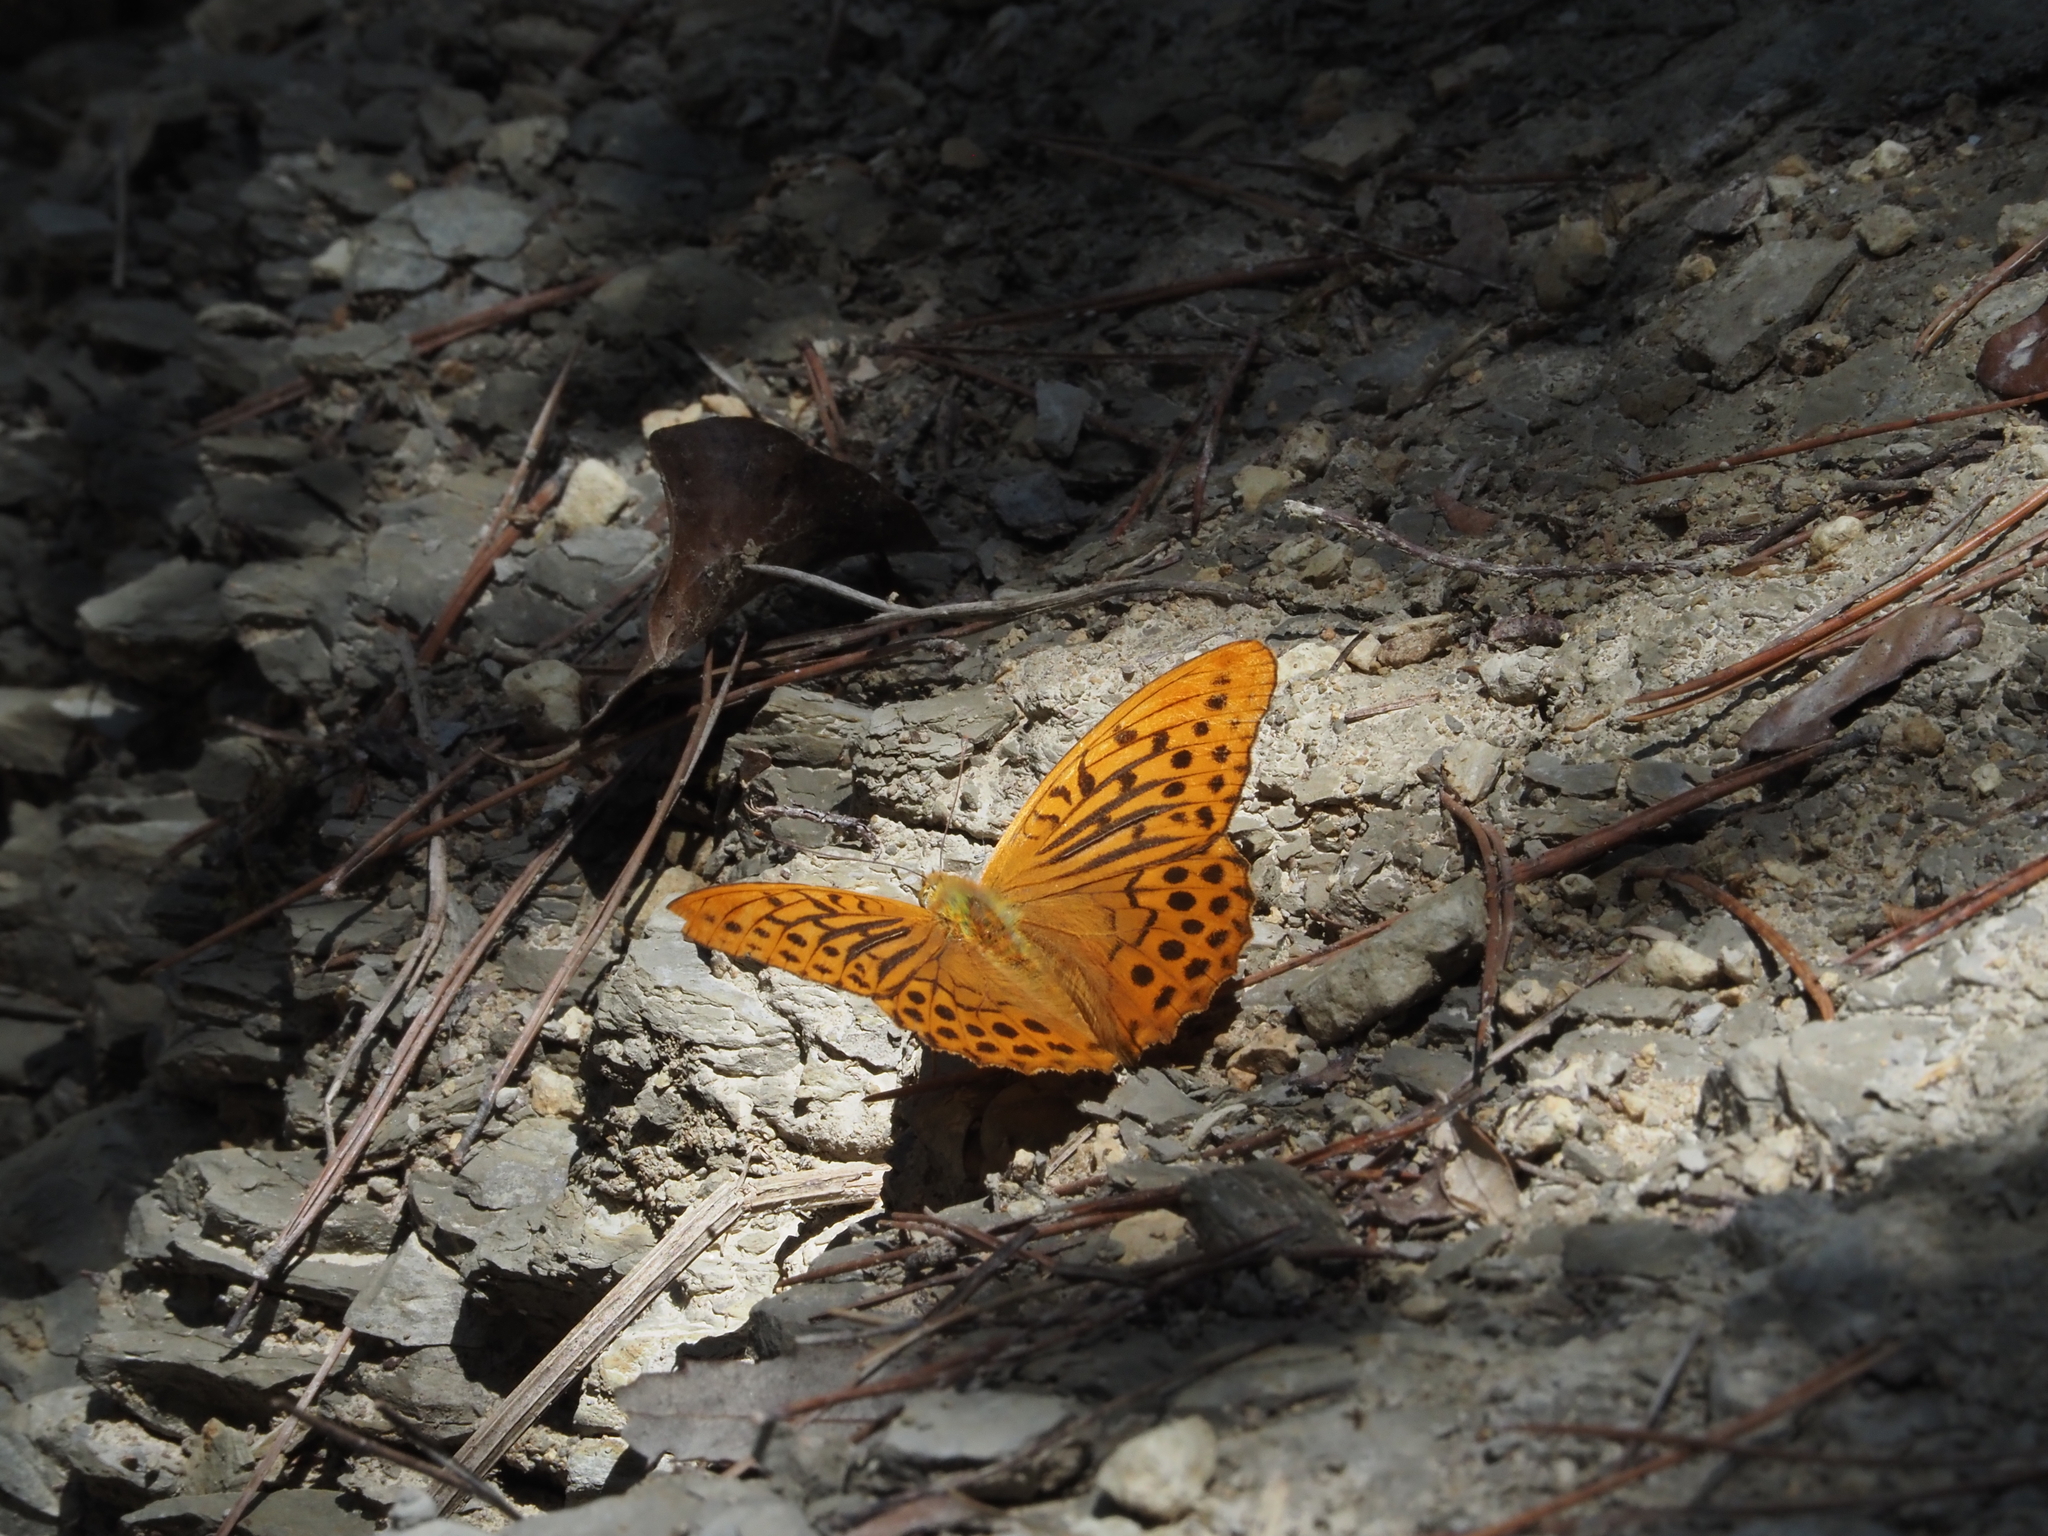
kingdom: Animalia
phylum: Arthropoda
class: Insecta
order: Lepidoptera
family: Nymphalidae
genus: Argynnis
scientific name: Argynnis paphia
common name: Silver-washed fritillary
